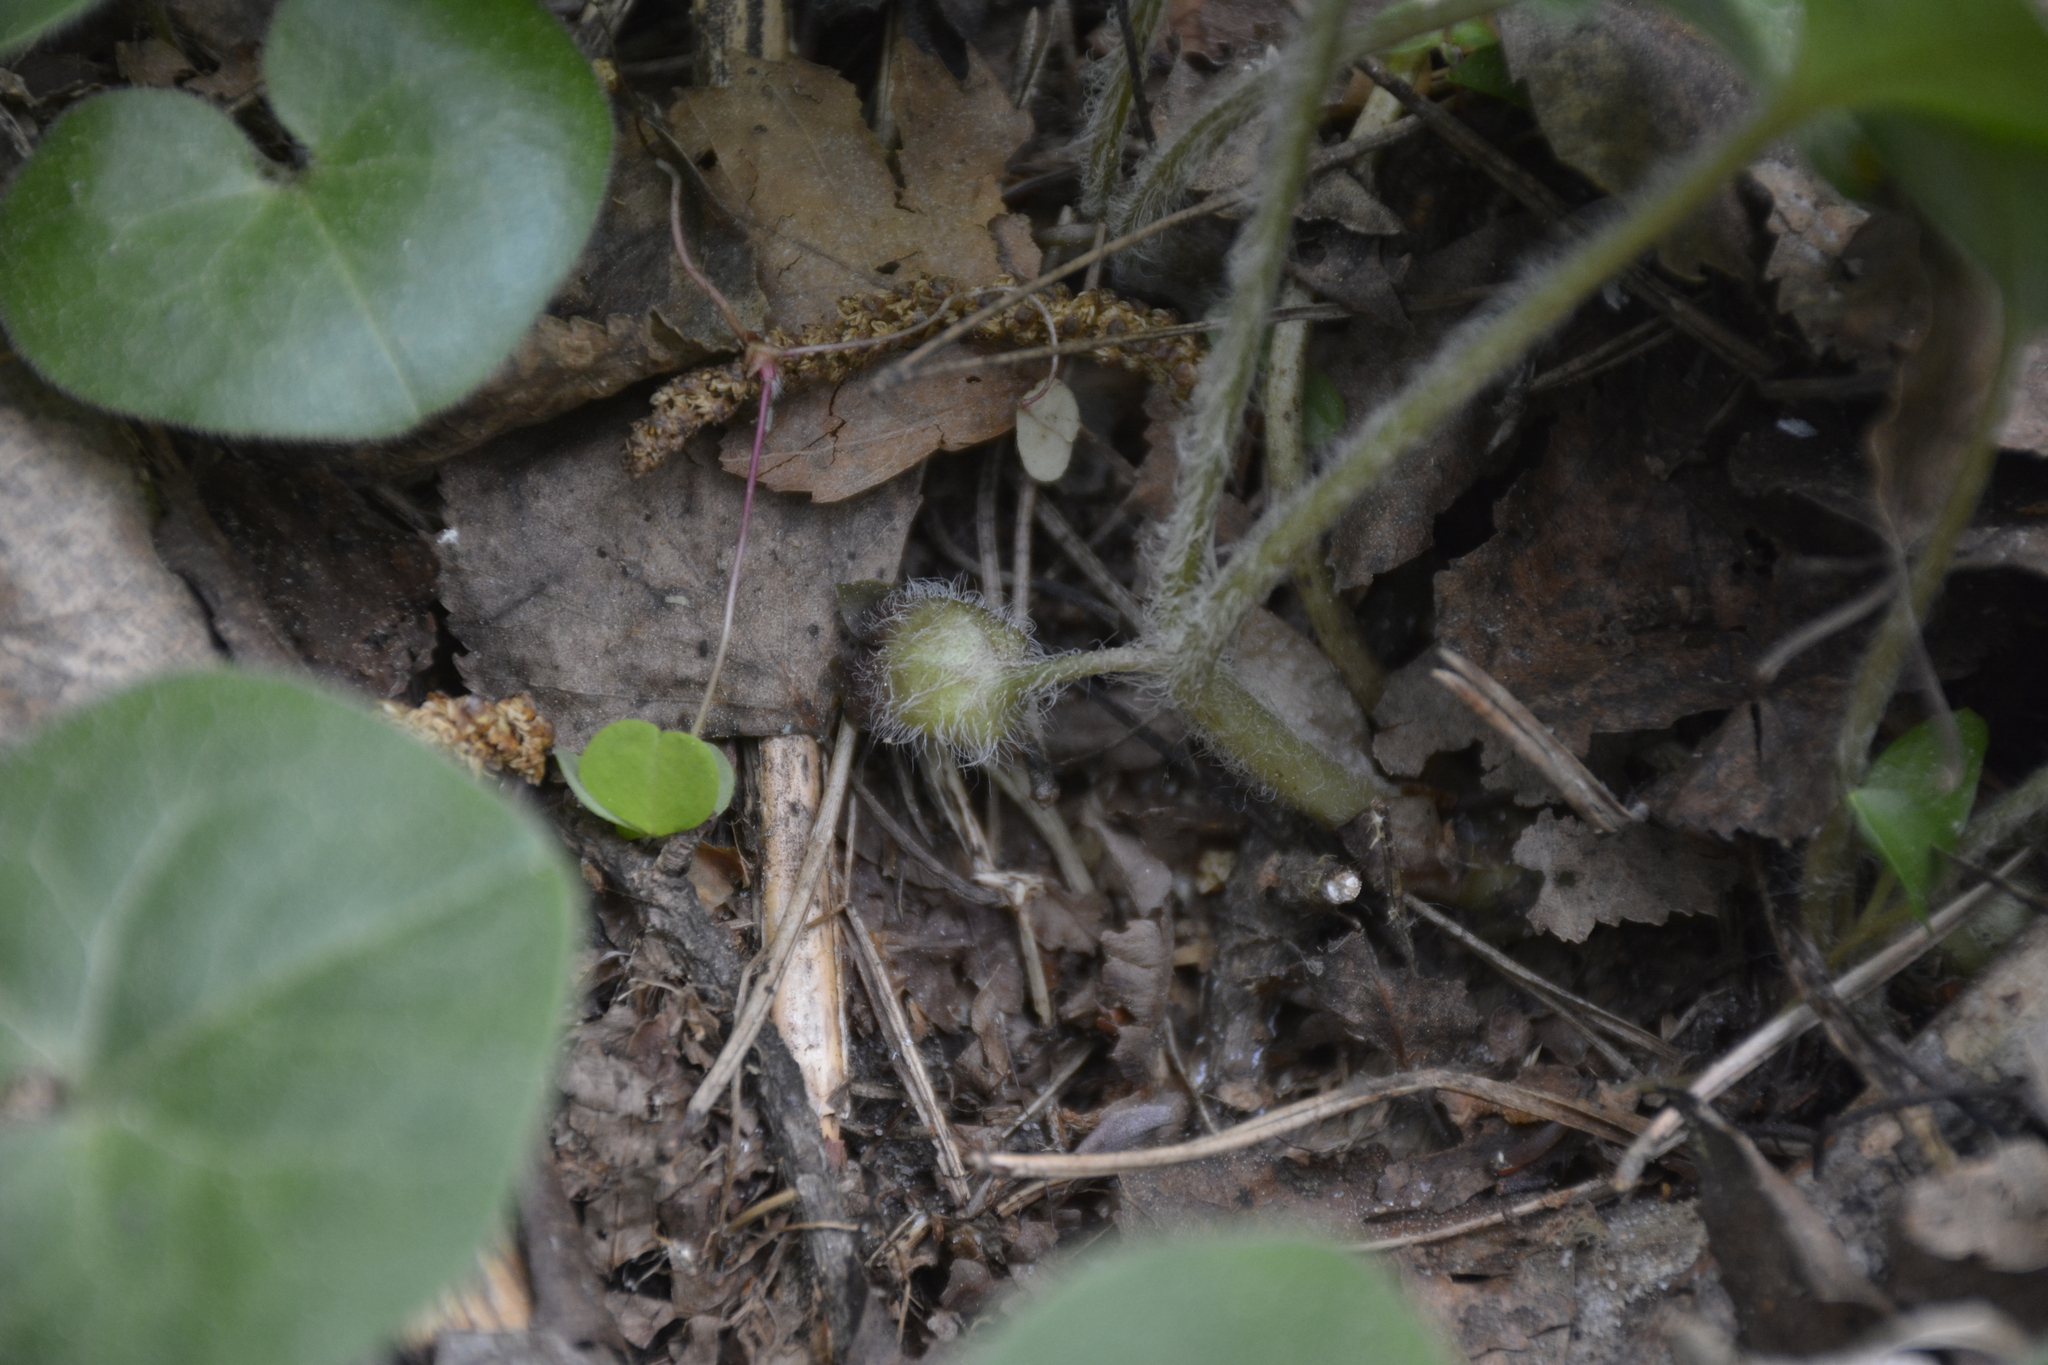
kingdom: Plantae
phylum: Tracheophyta
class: Magnoliopsida
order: Piperales
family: Aristolochiaceae
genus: Asarum
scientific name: Asarum europaeum
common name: Asarabacca
